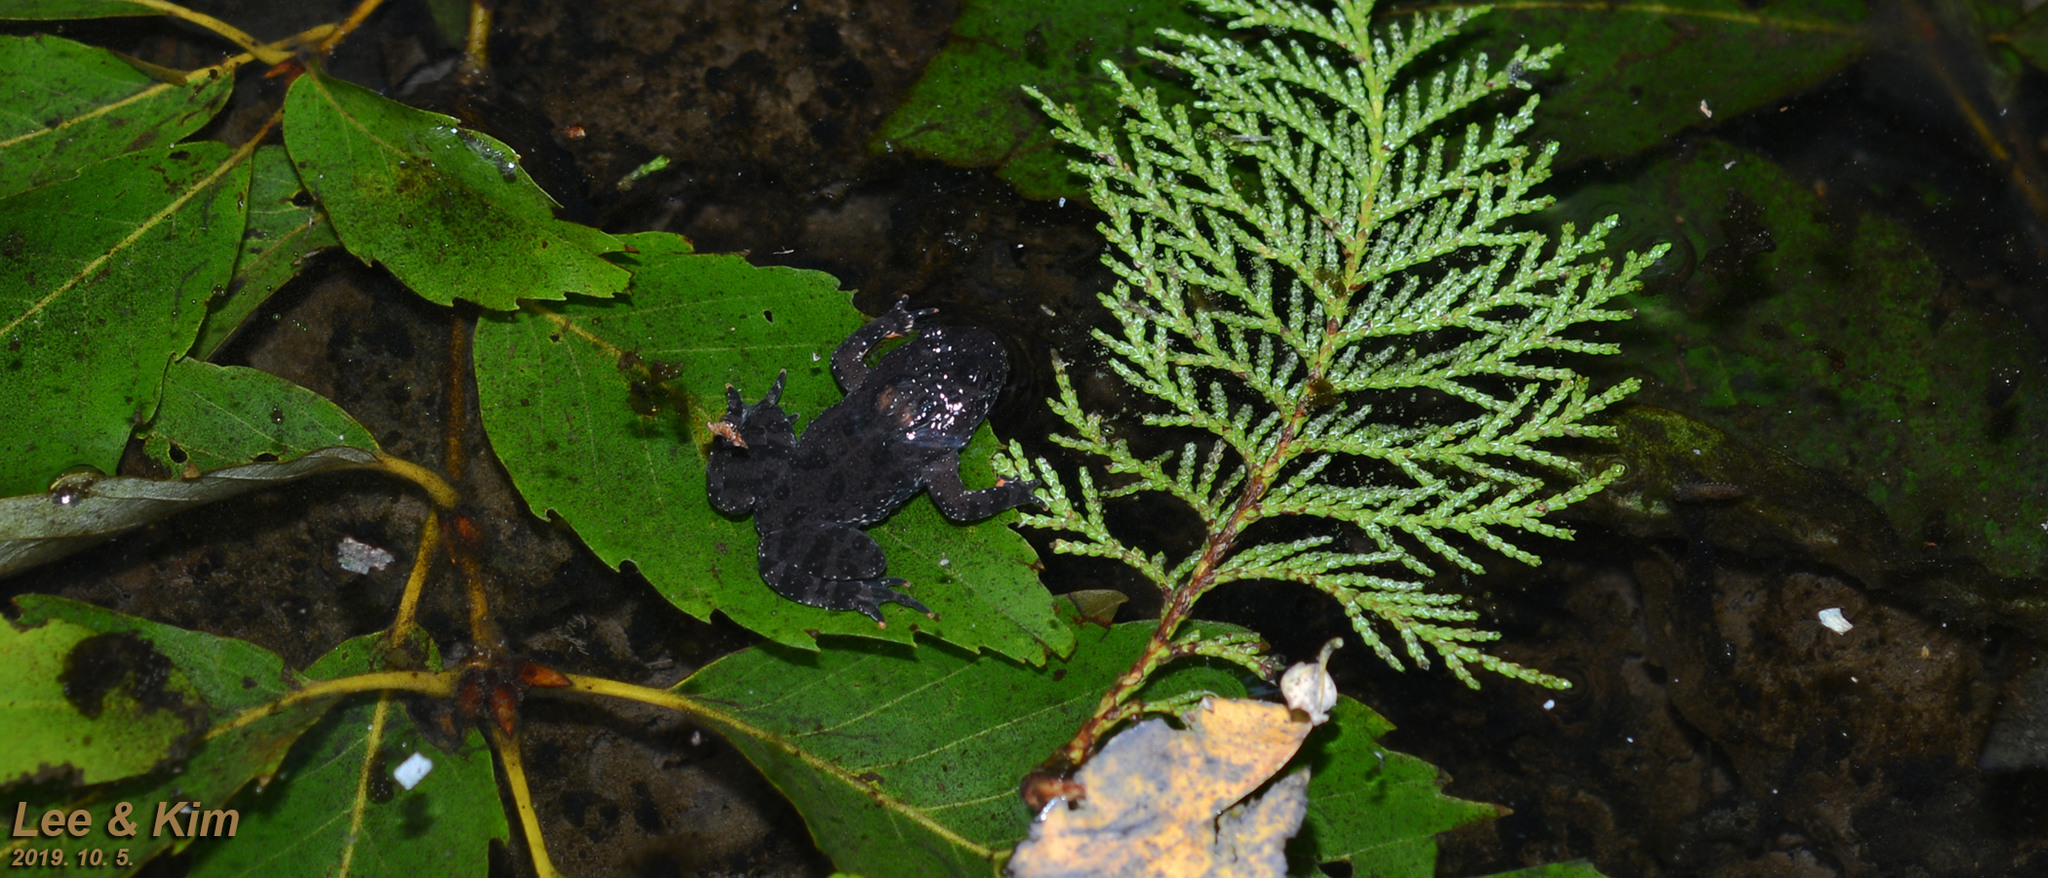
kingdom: Animalia
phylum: Chordata
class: Amphibia
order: Anura
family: Bombinatoridae
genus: Bombina
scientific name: Bombina orientalis
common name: Oriental firebelly toad
